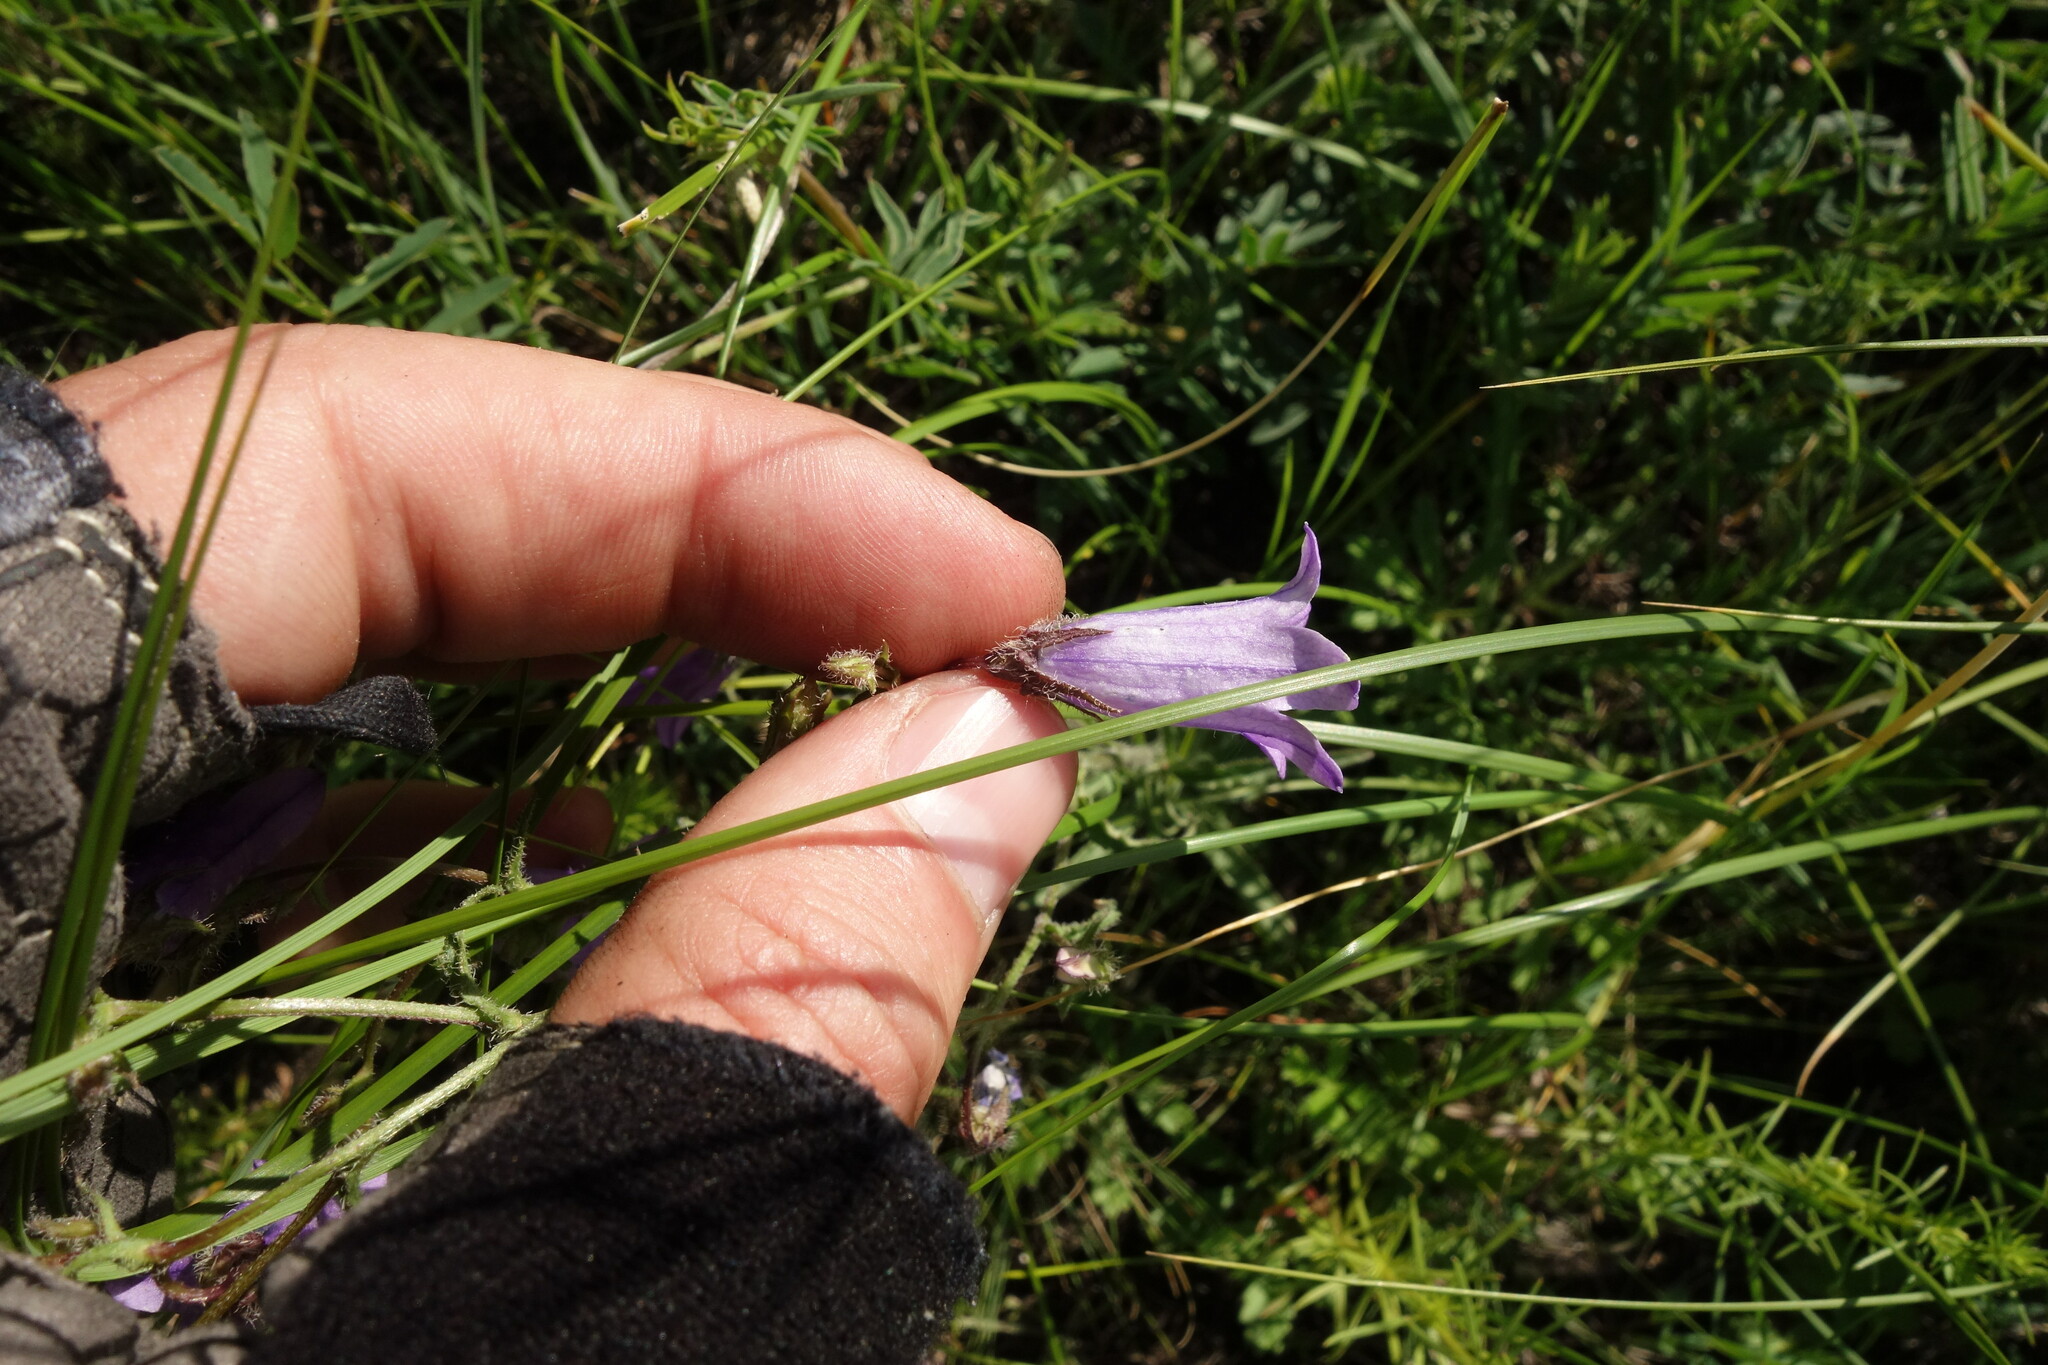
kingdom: Plantae
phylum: Tracheophyta
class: Magnoliopsida
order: Asterales
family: Campanulaceae
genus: Campanula
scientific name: Campanula sibirica
